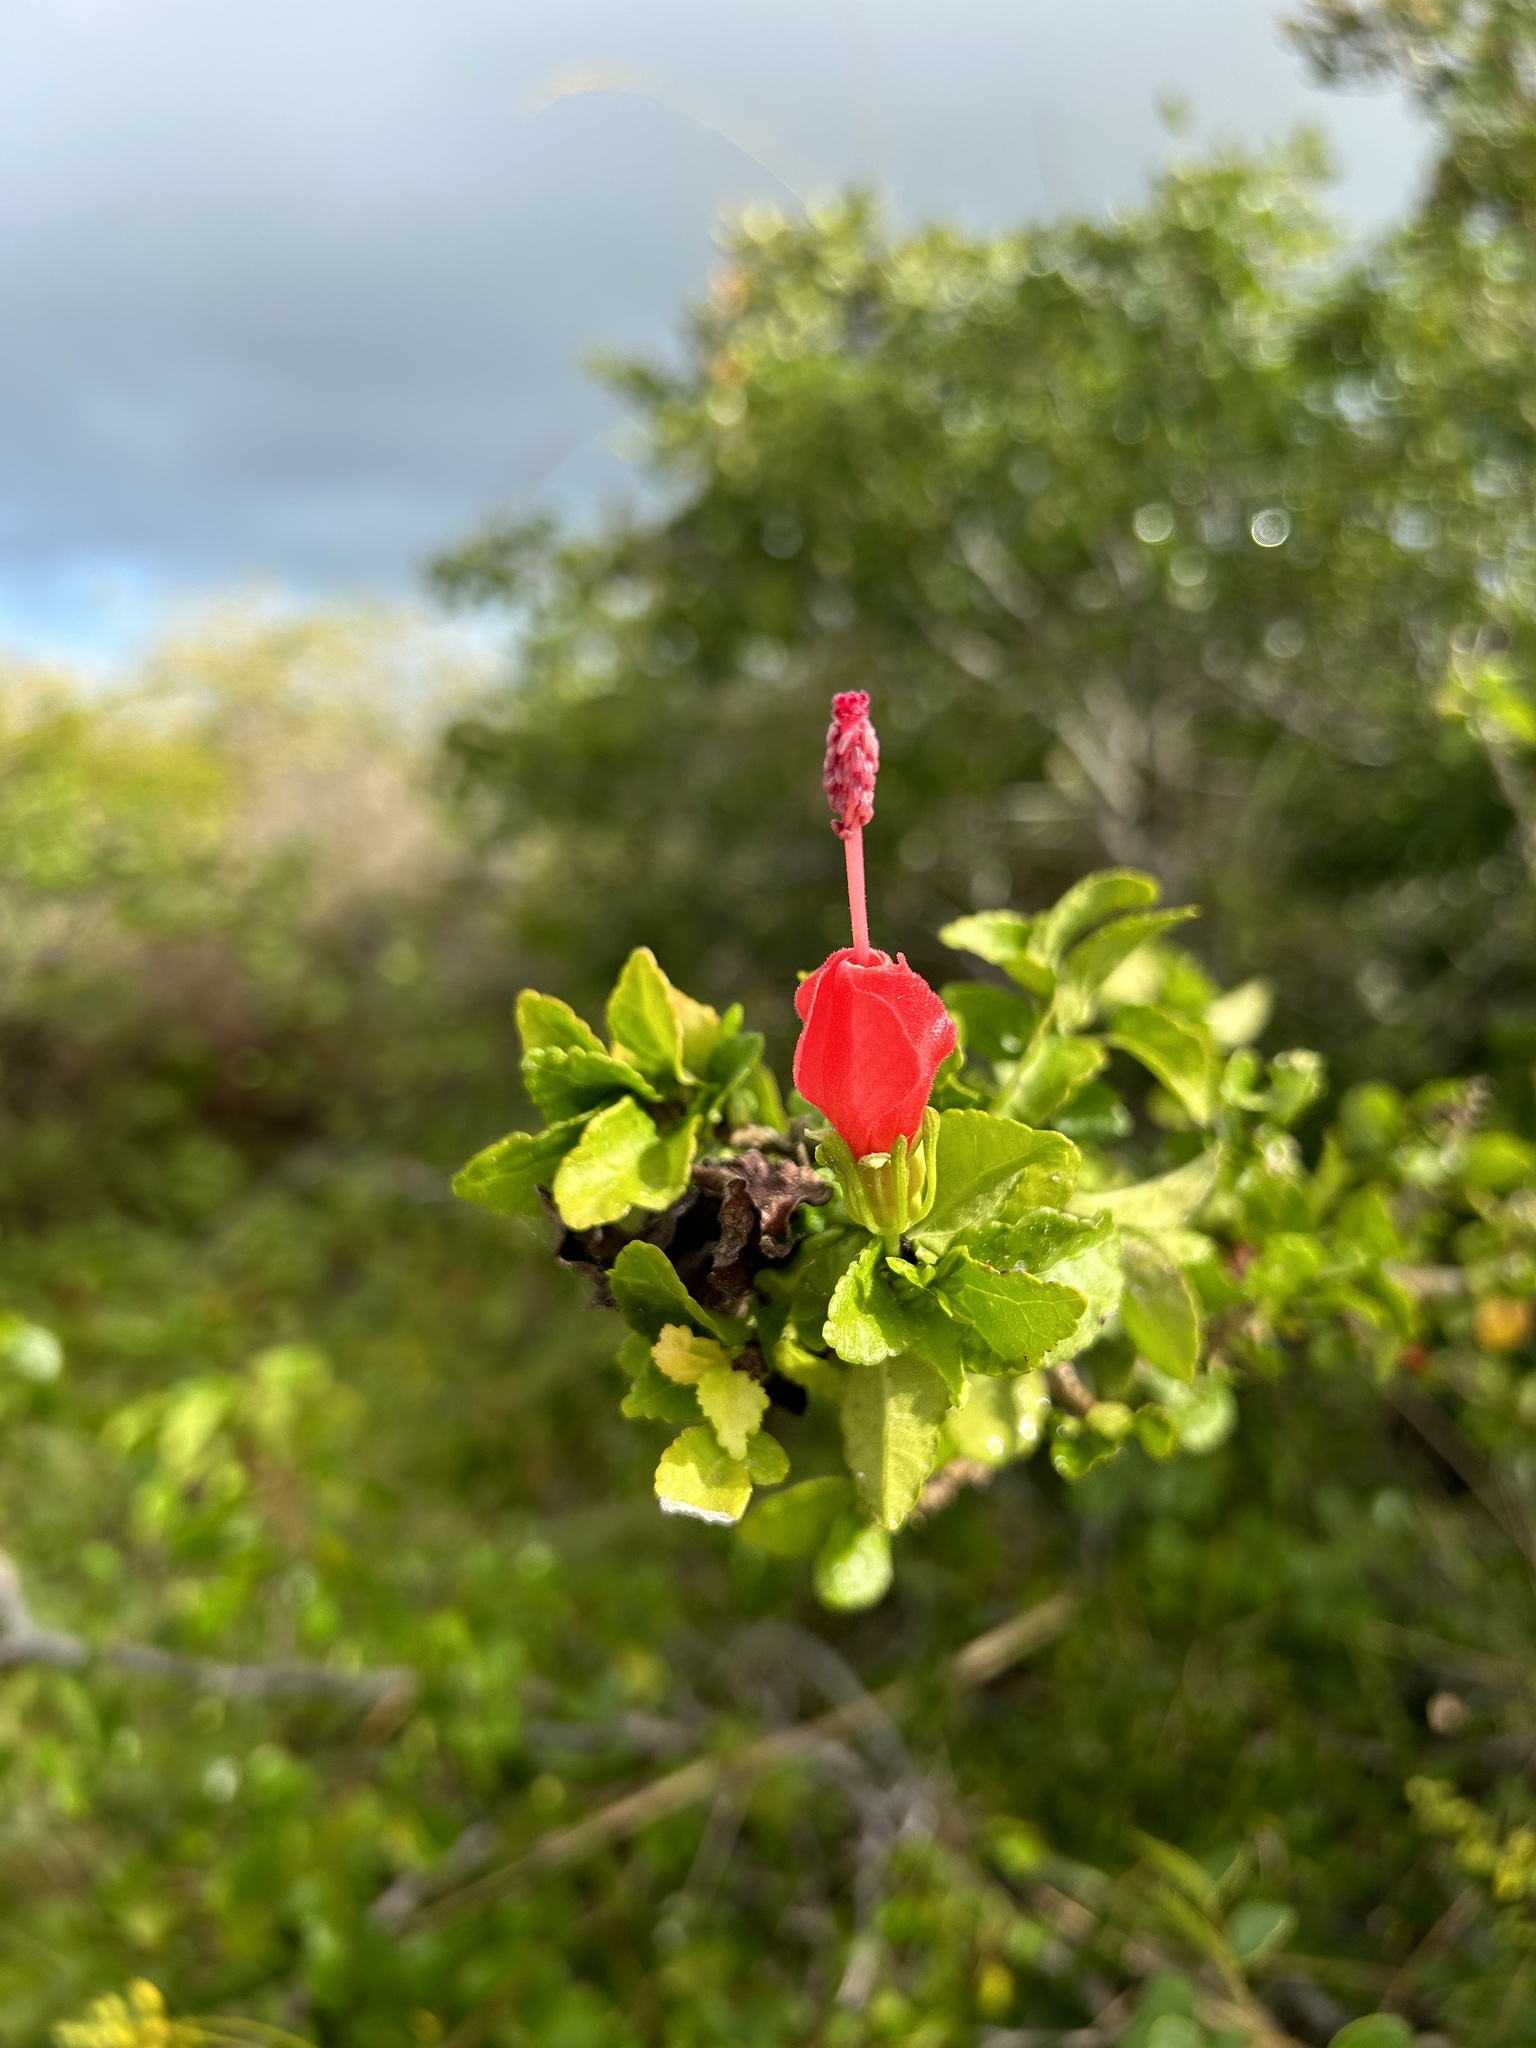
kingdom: Plantae
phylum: Tracheophyta
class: Magnoliopsida
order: Malvales
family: Malvaceae
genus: Malvaviscus
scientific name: Malvaviscus arboreus
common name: Wax mallow
